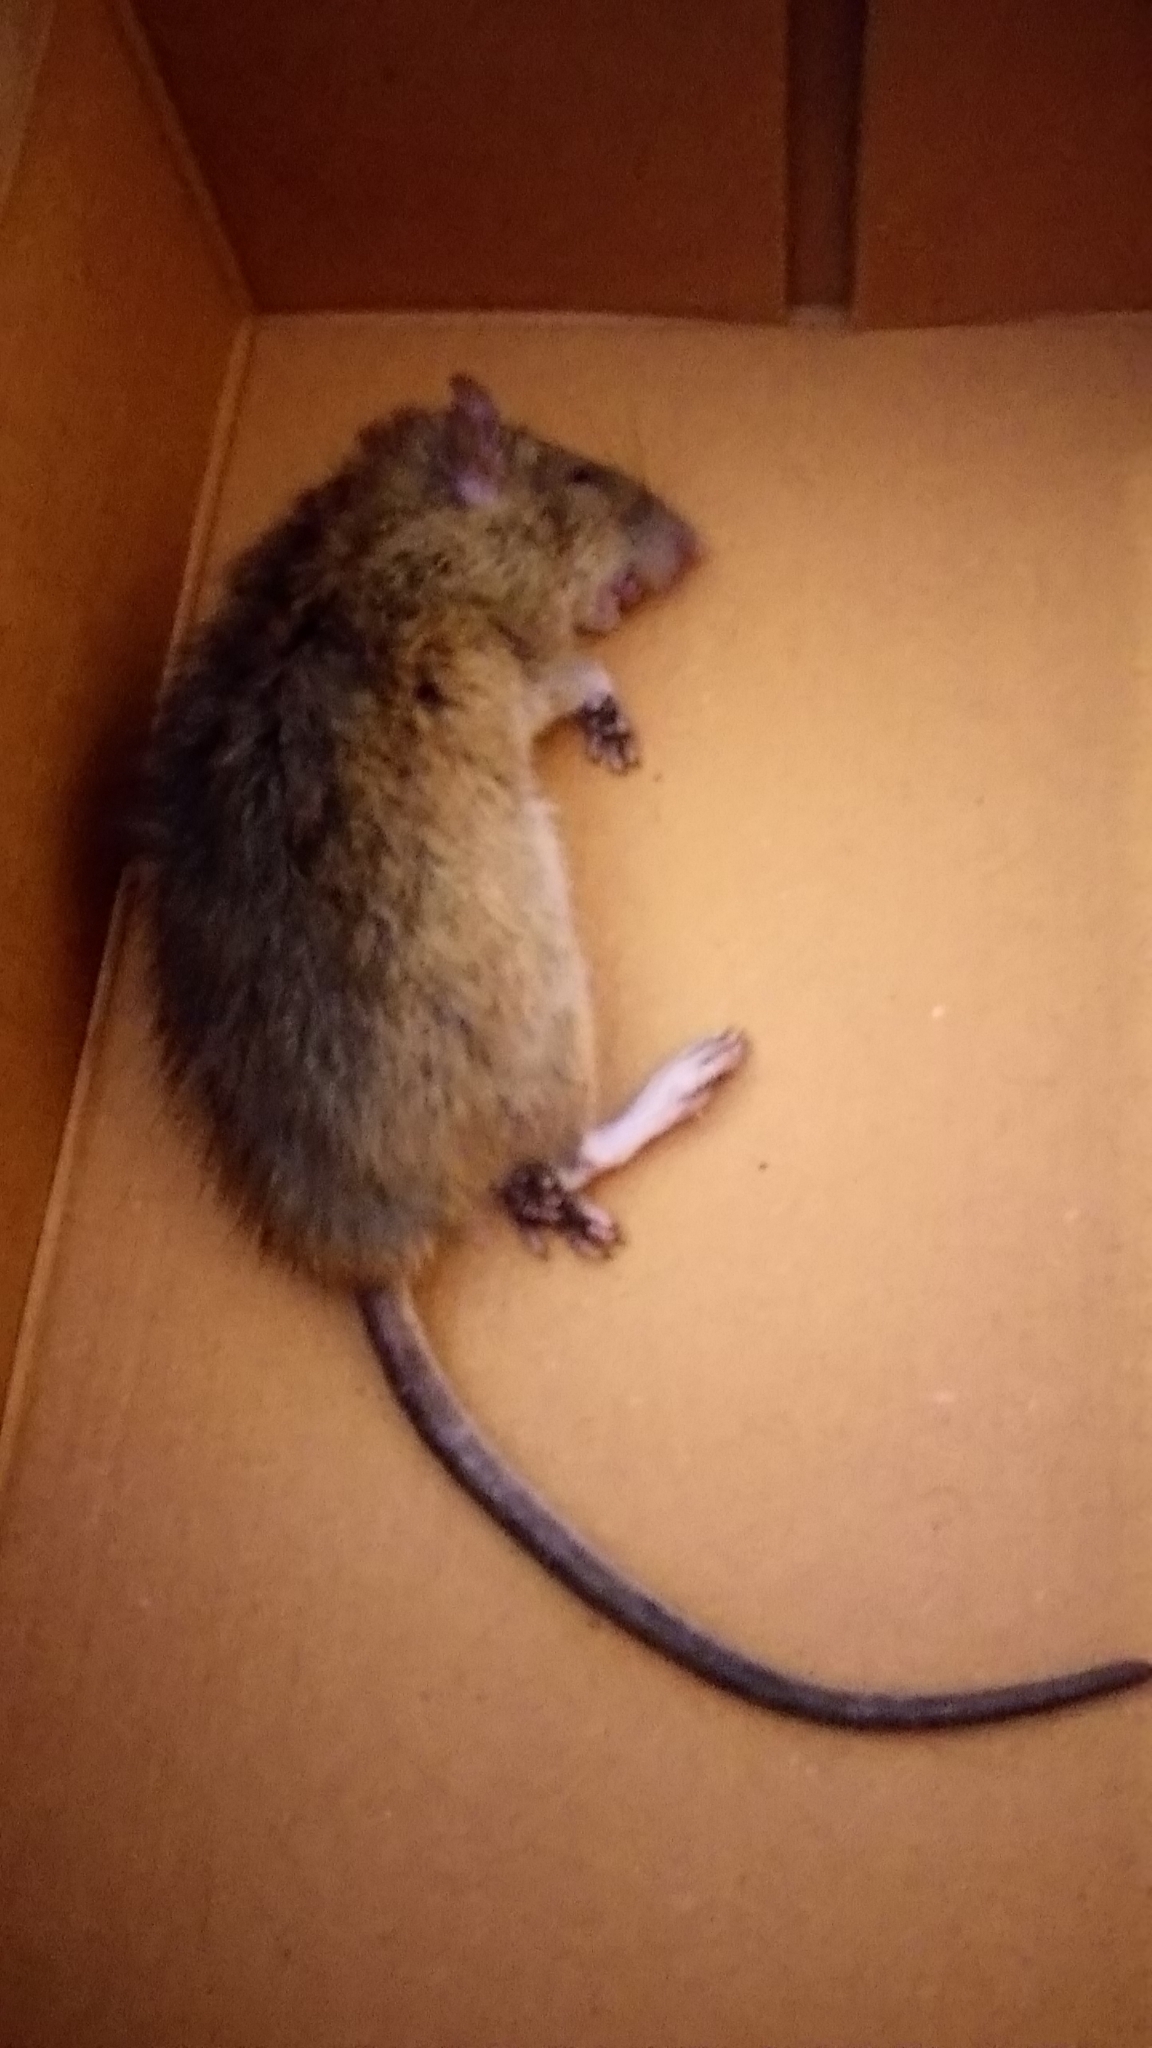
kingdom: Animalia
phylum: Chordata
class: Mammalia
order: Rodentia
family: Muridae
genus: Rattus
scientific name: Rattus norvegicus
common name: Brown rat
